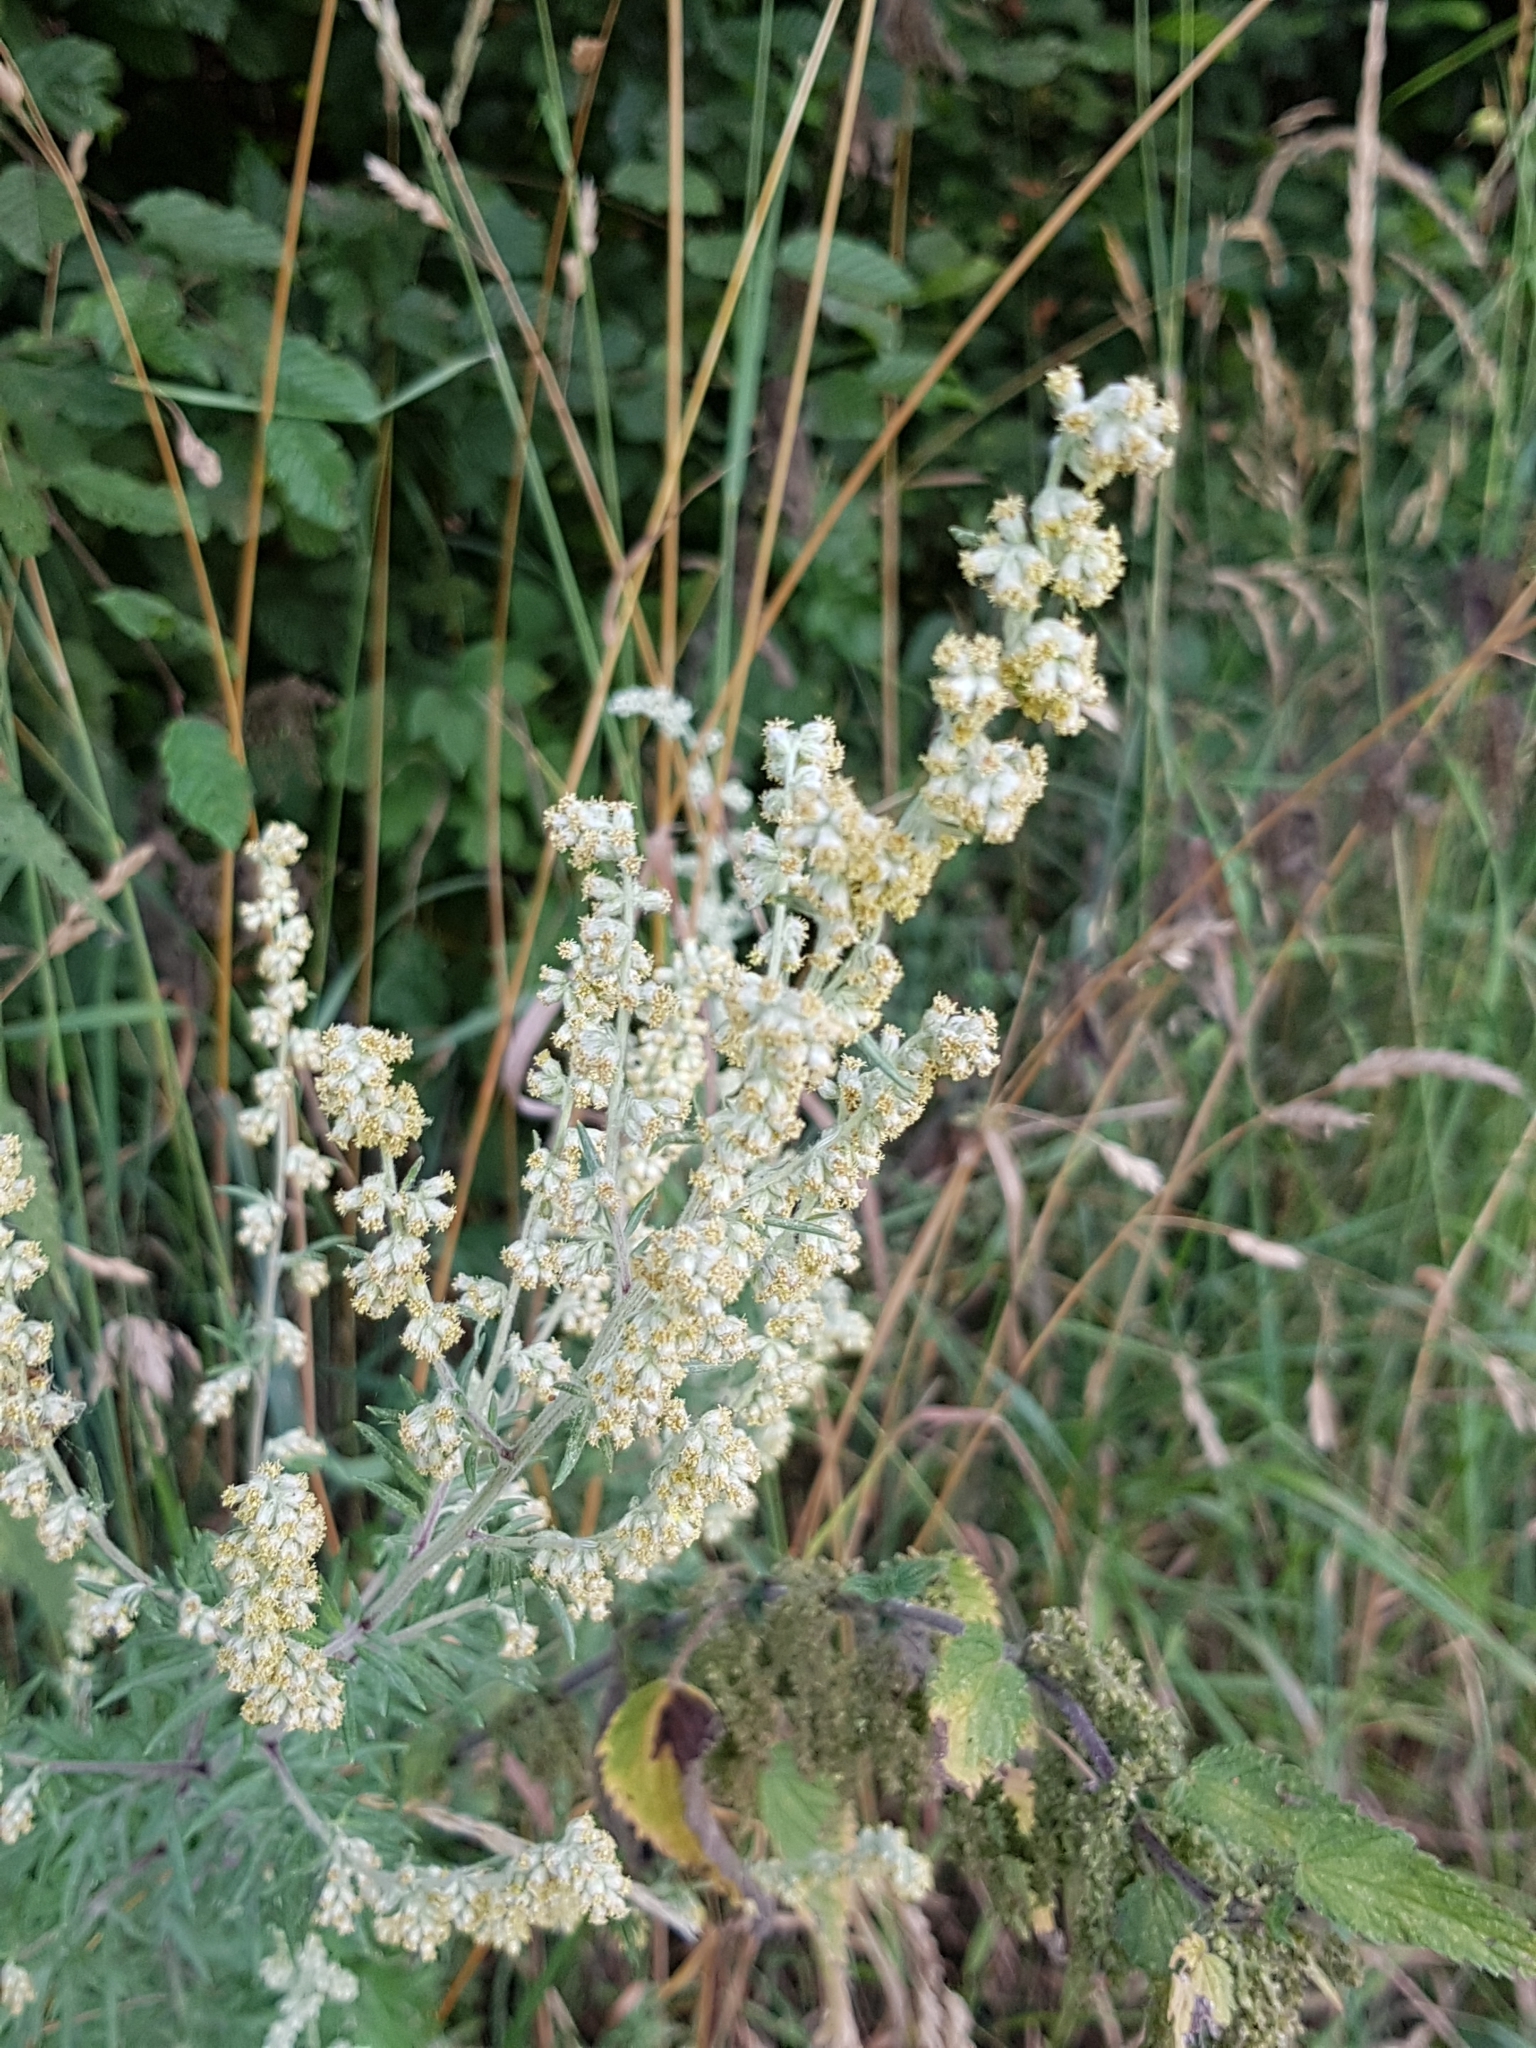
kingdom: Plantae
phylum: Tracheophyta
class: Magnoliopsida
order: Asterales
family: Asteraceae
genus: Artemisia
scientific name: Artemisia vulgaris
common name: Mugwort
